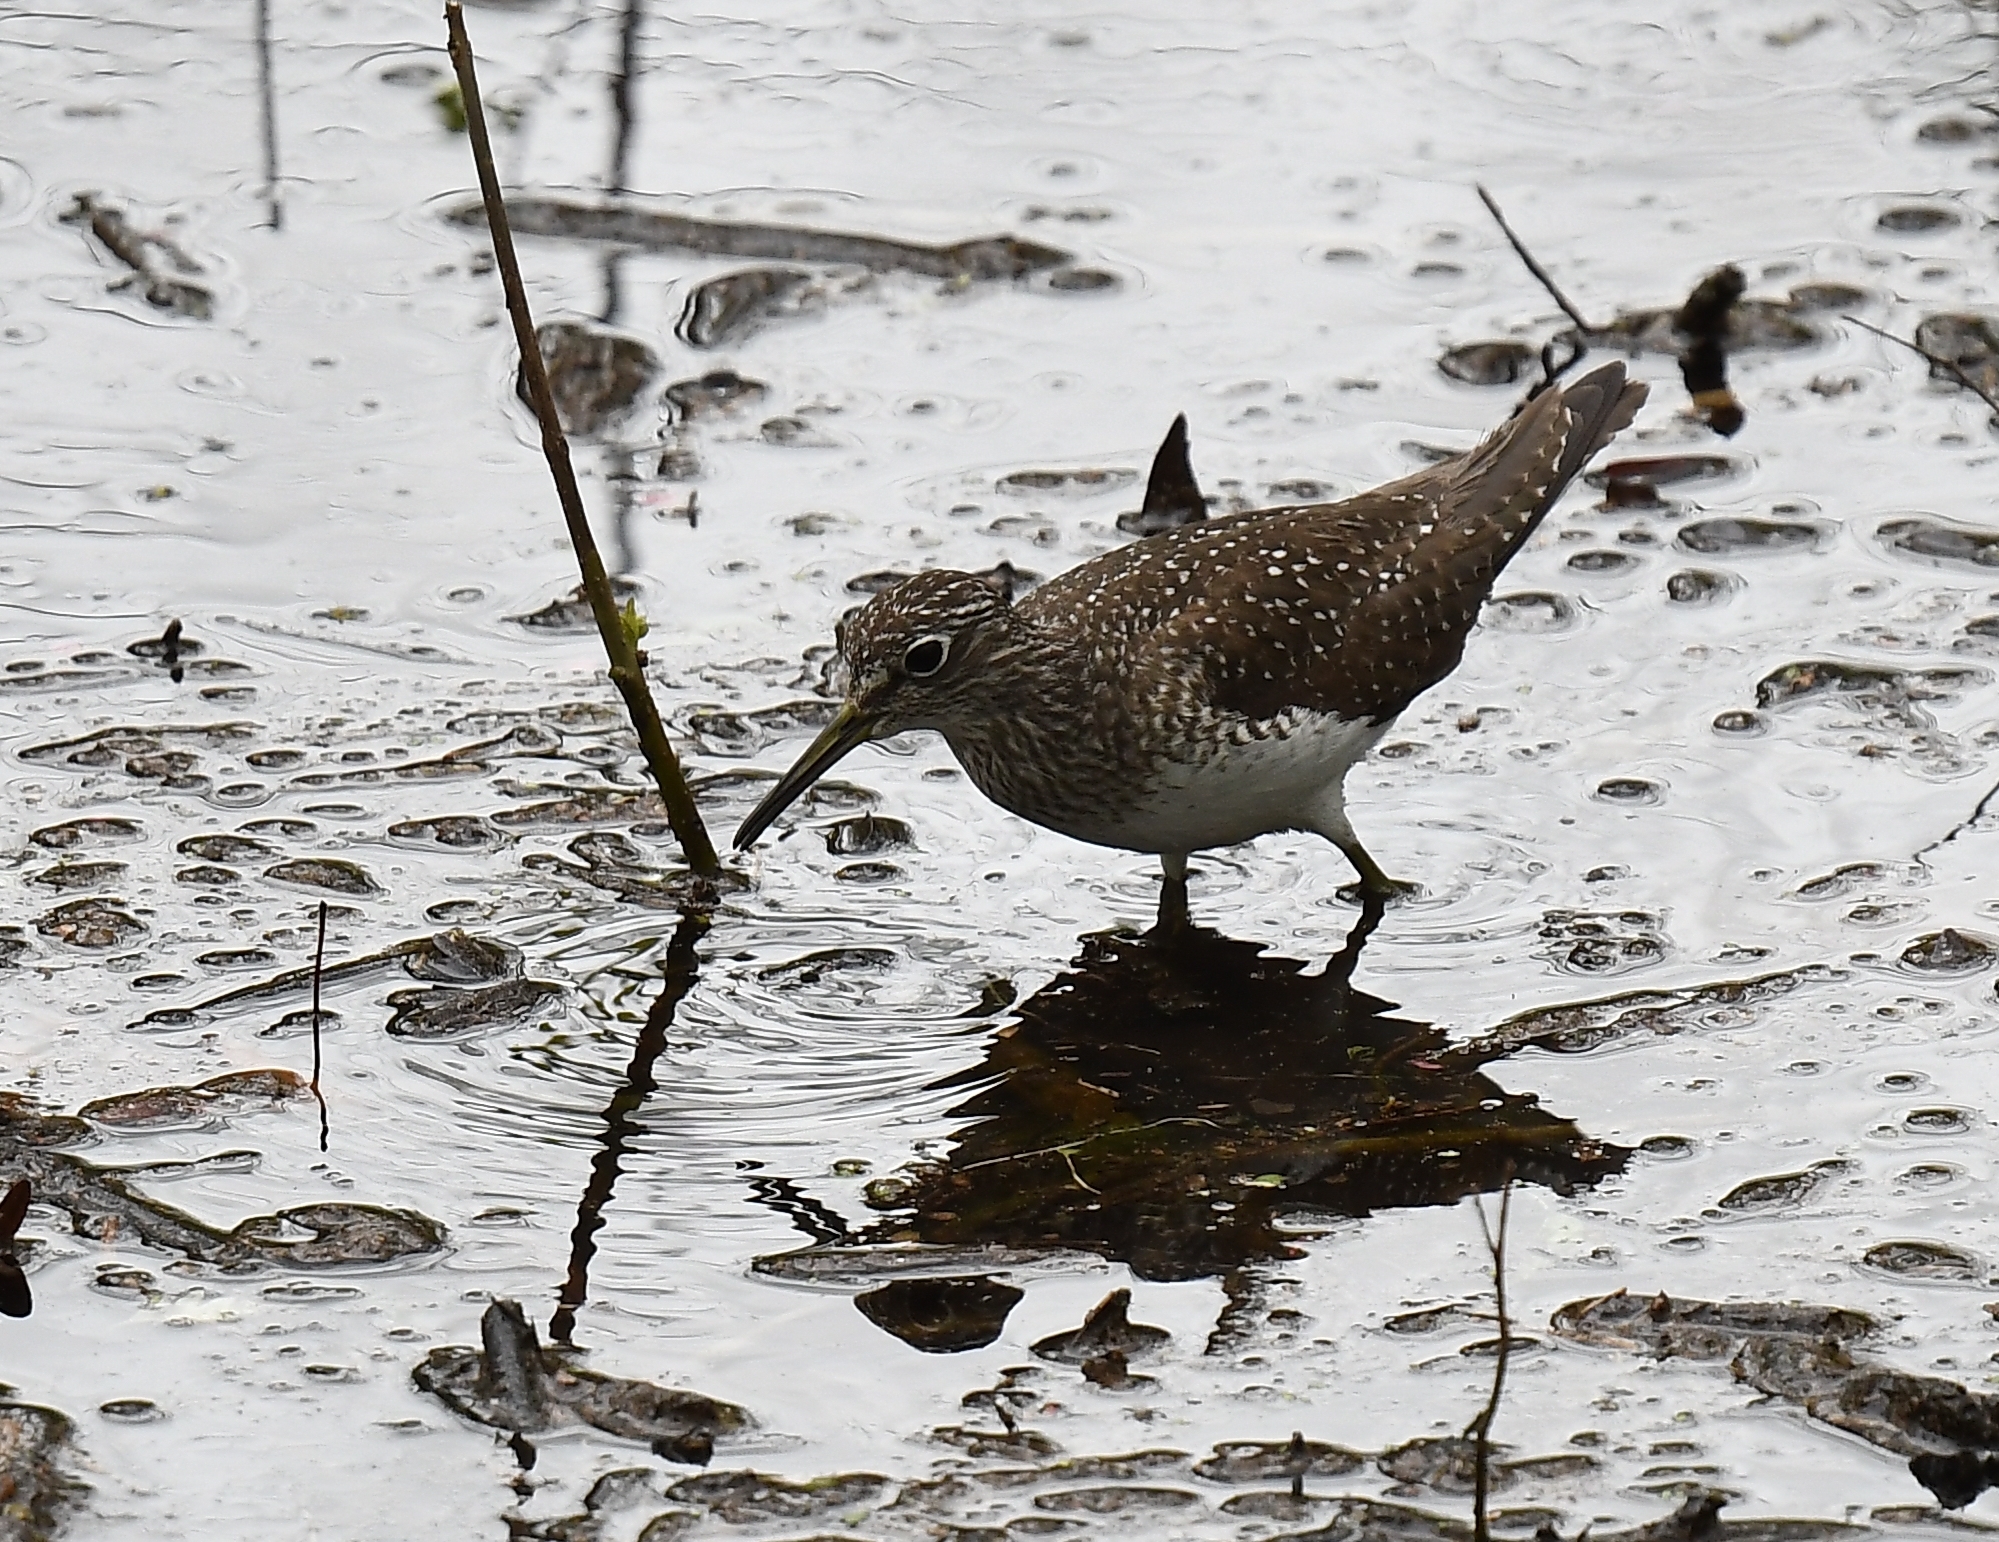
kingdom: Animalia
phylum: Chordata
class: Aves
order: Charadriiformes
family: Scolopacidae
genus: Tringa
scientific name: Tringa solitaria
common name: Solitary sandpiper
